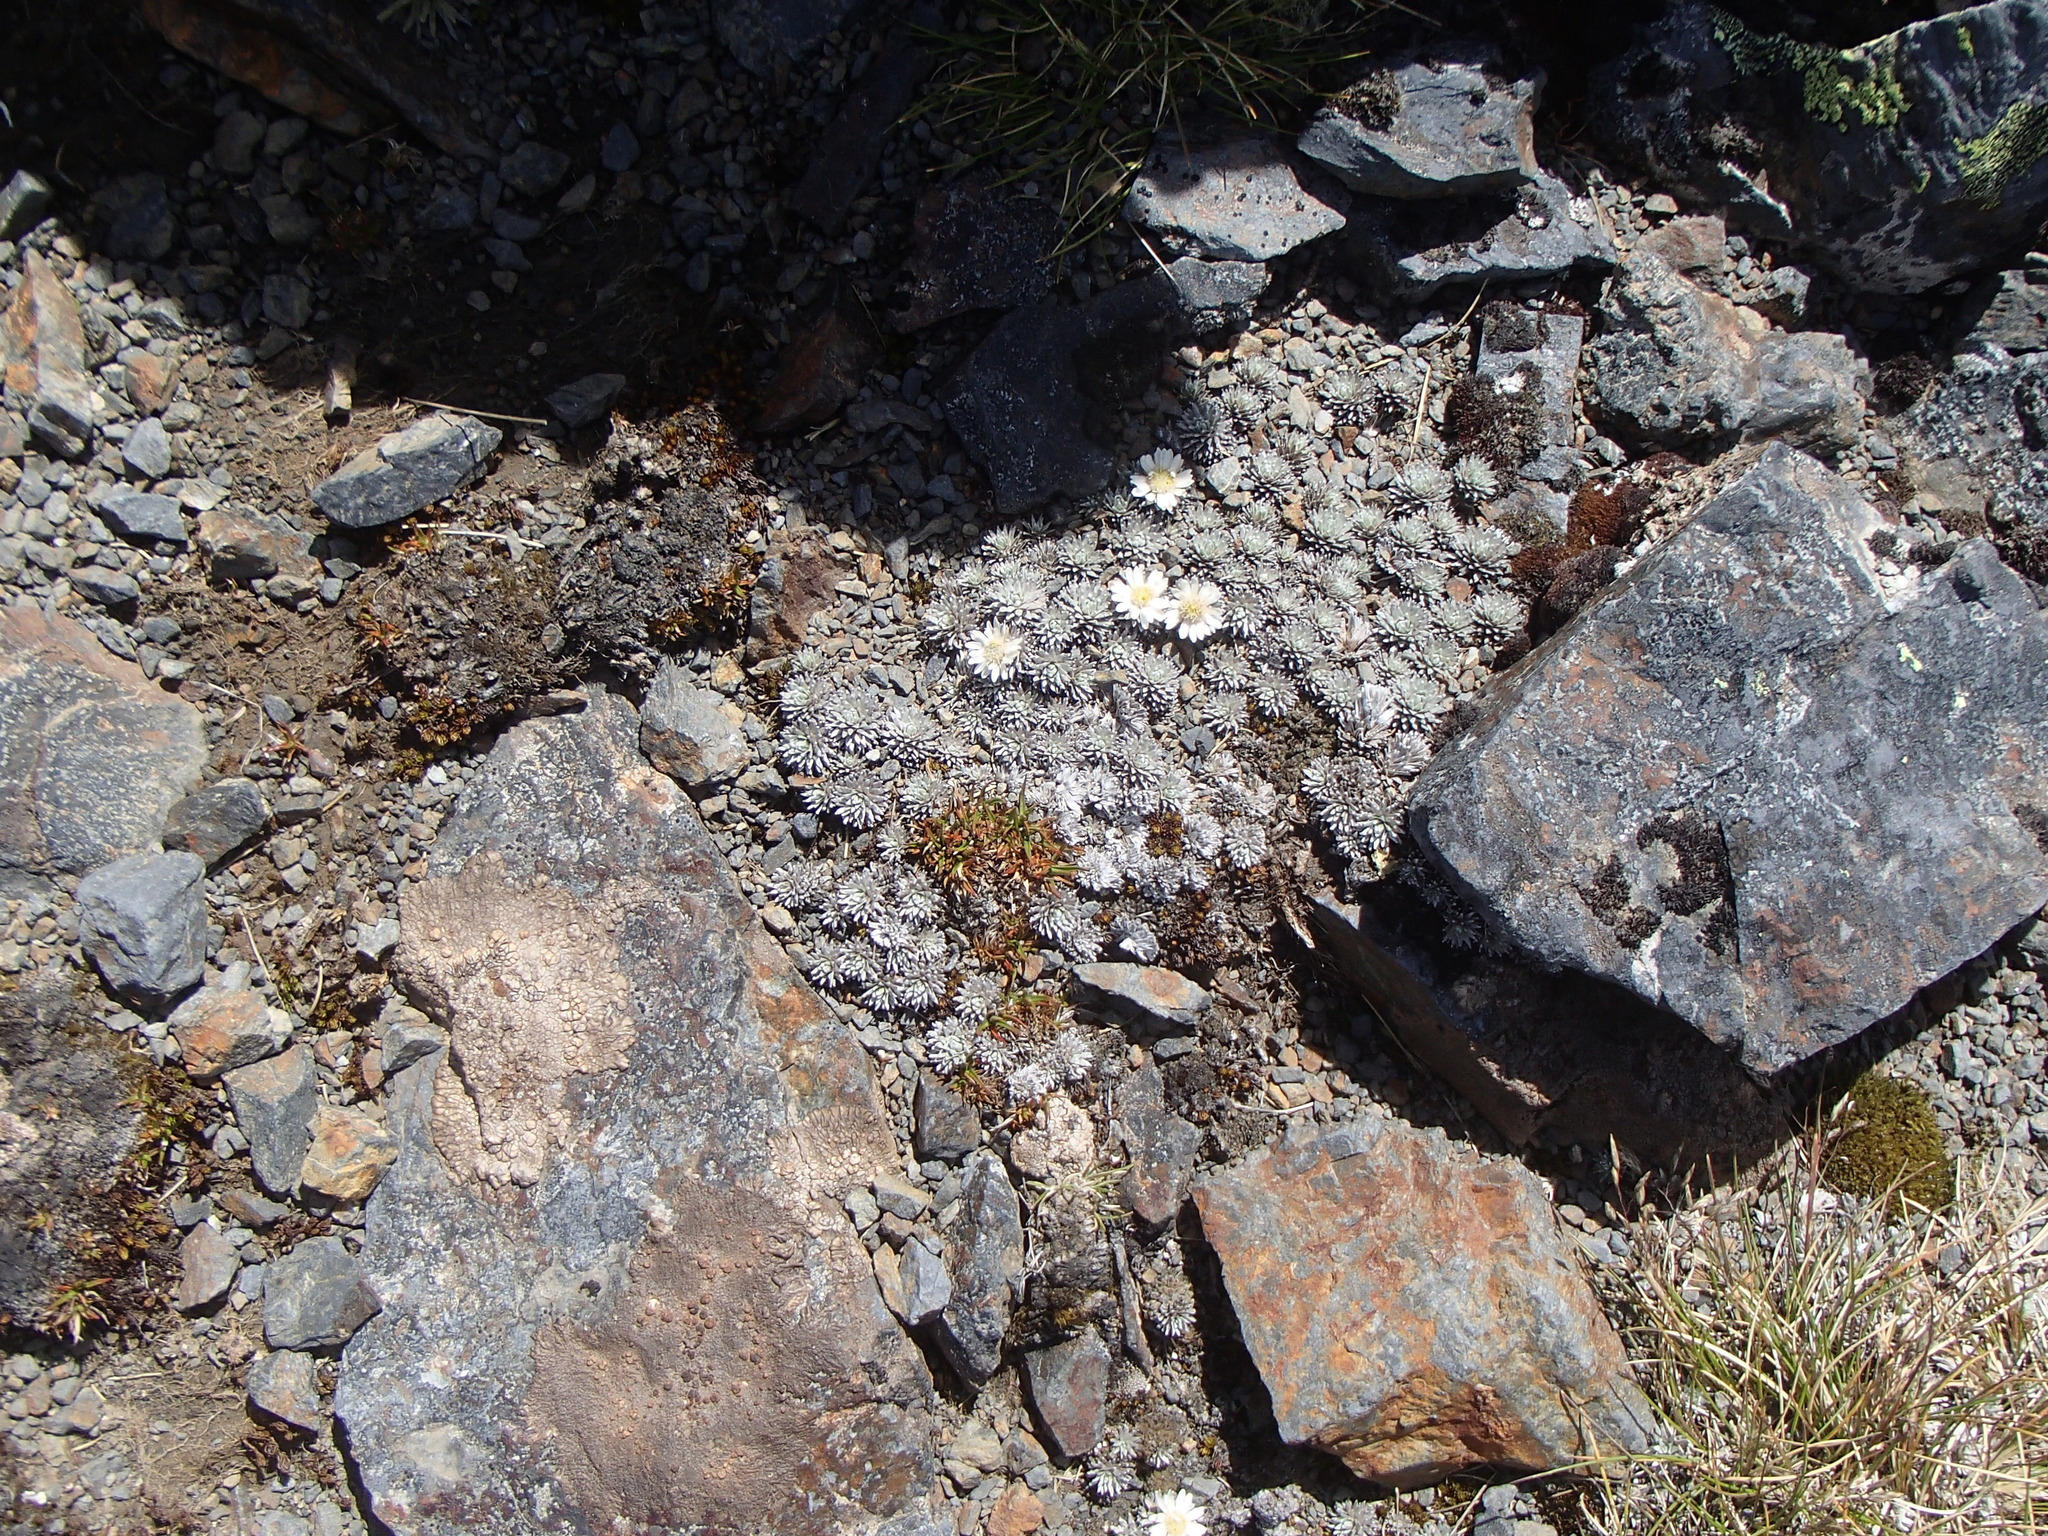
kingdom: Plantae
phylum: Tracheophyta
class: Magnoliopsida
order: Asterales
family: Asteraceae
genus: Raoulia
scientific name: Raoulia grandiflora
